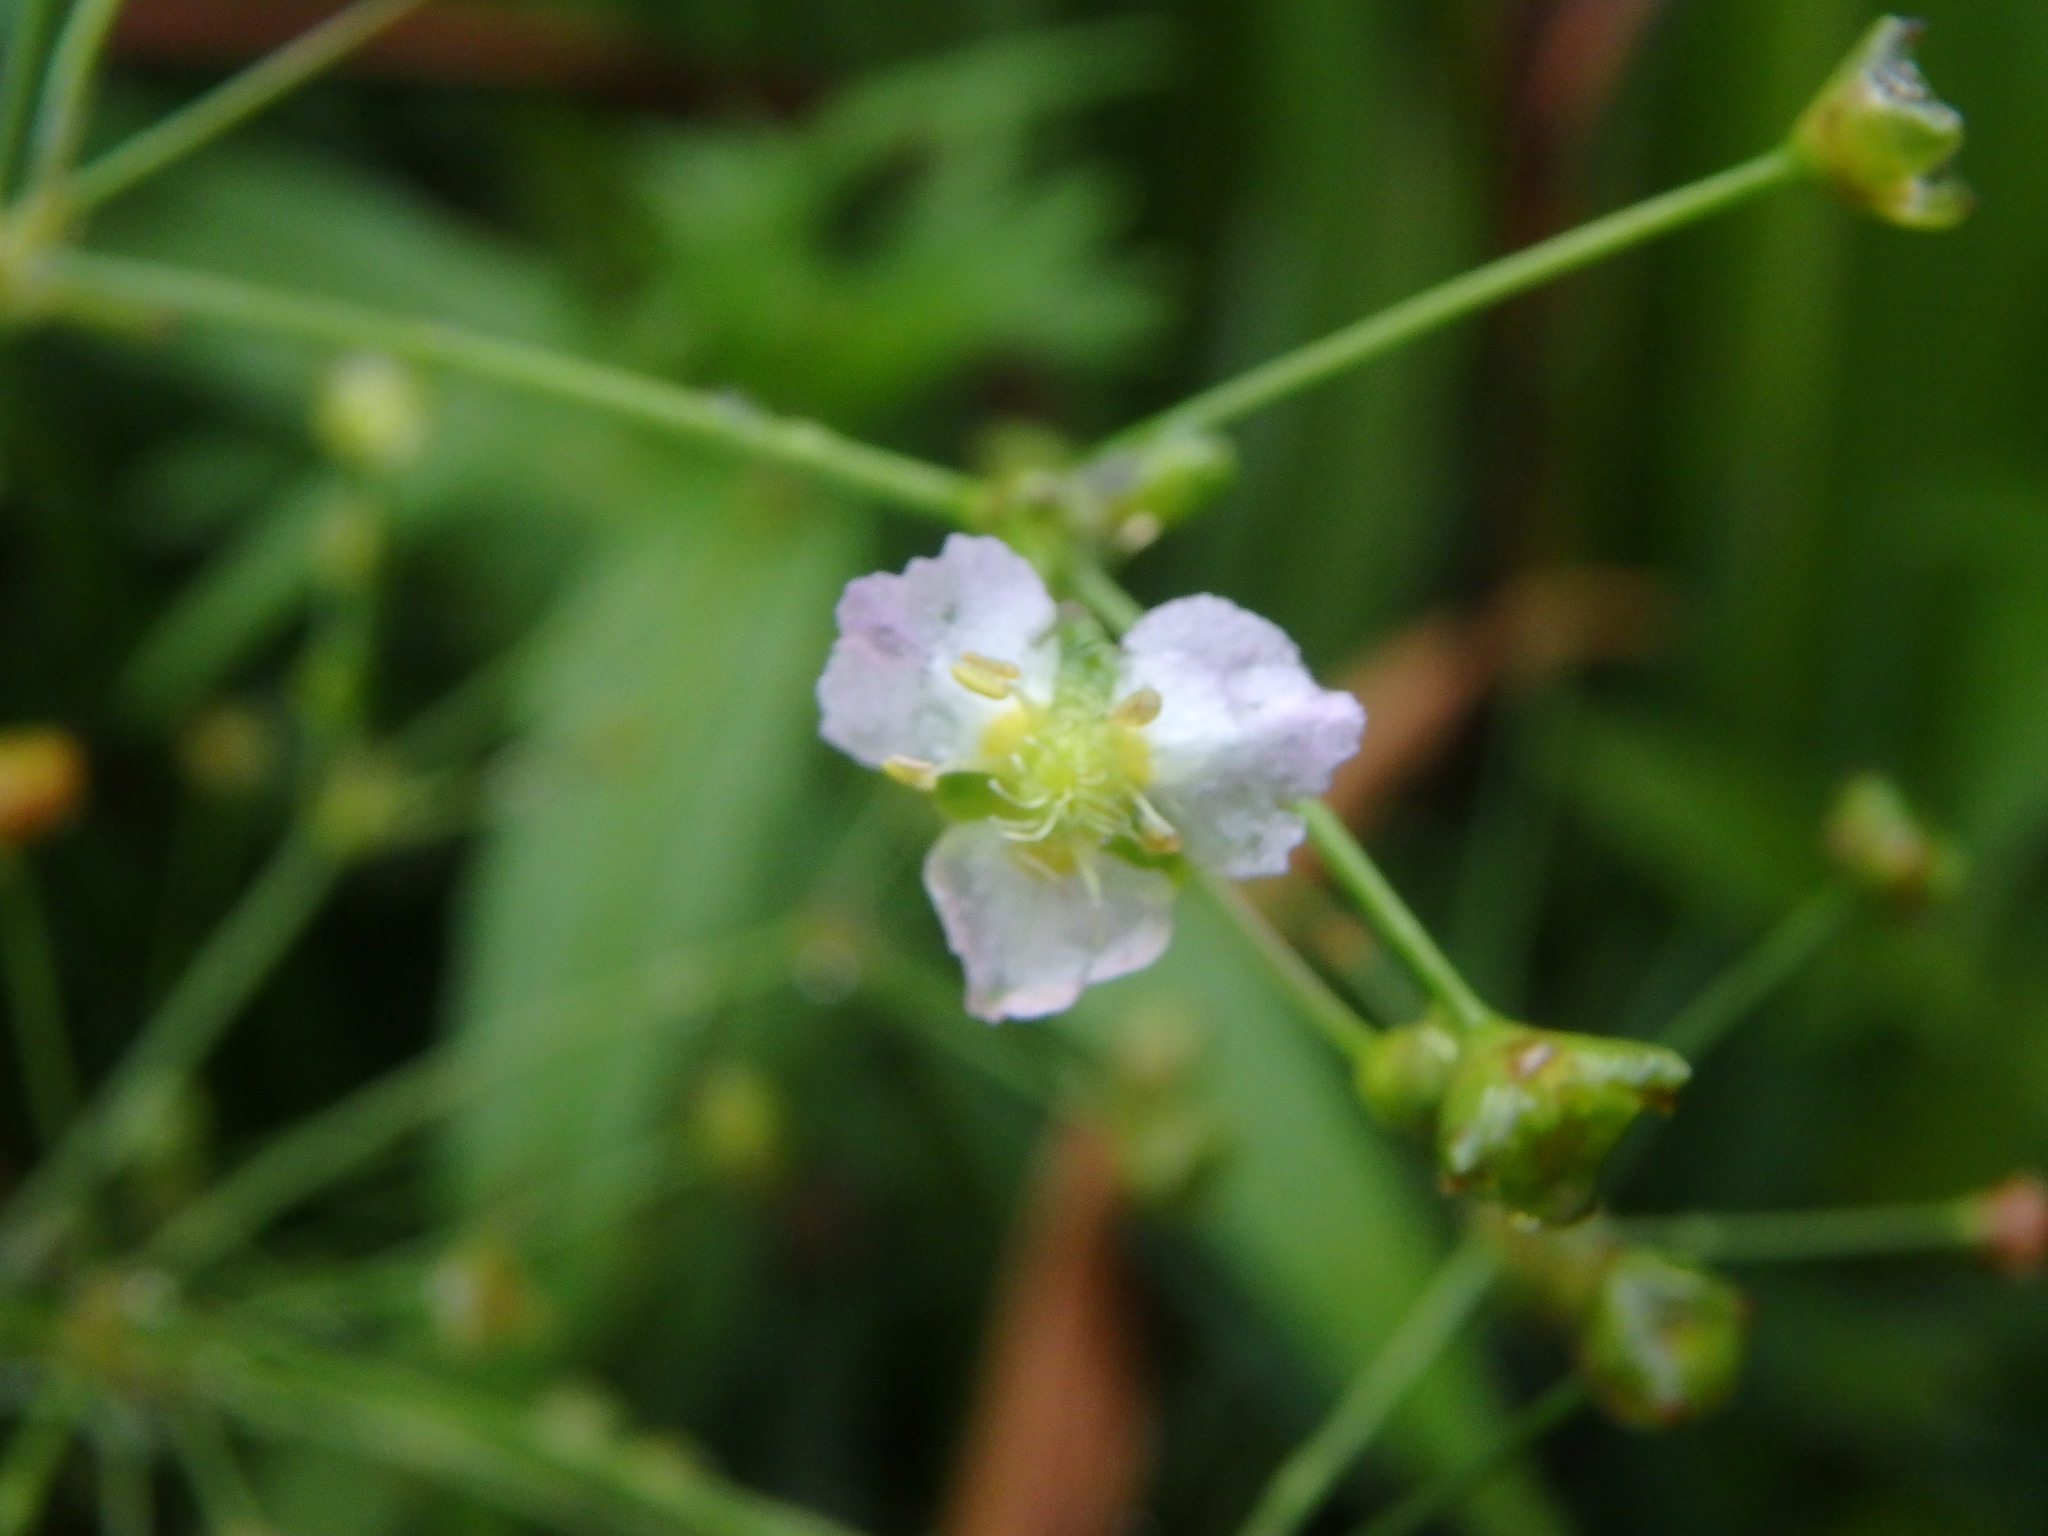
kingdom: Plantae
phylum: Tracheophyta
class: Liliopsida
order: Alismatales
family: Alismataceae
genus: Alisma
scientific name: Alisma plantago-aquatica
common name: Water-plantain
